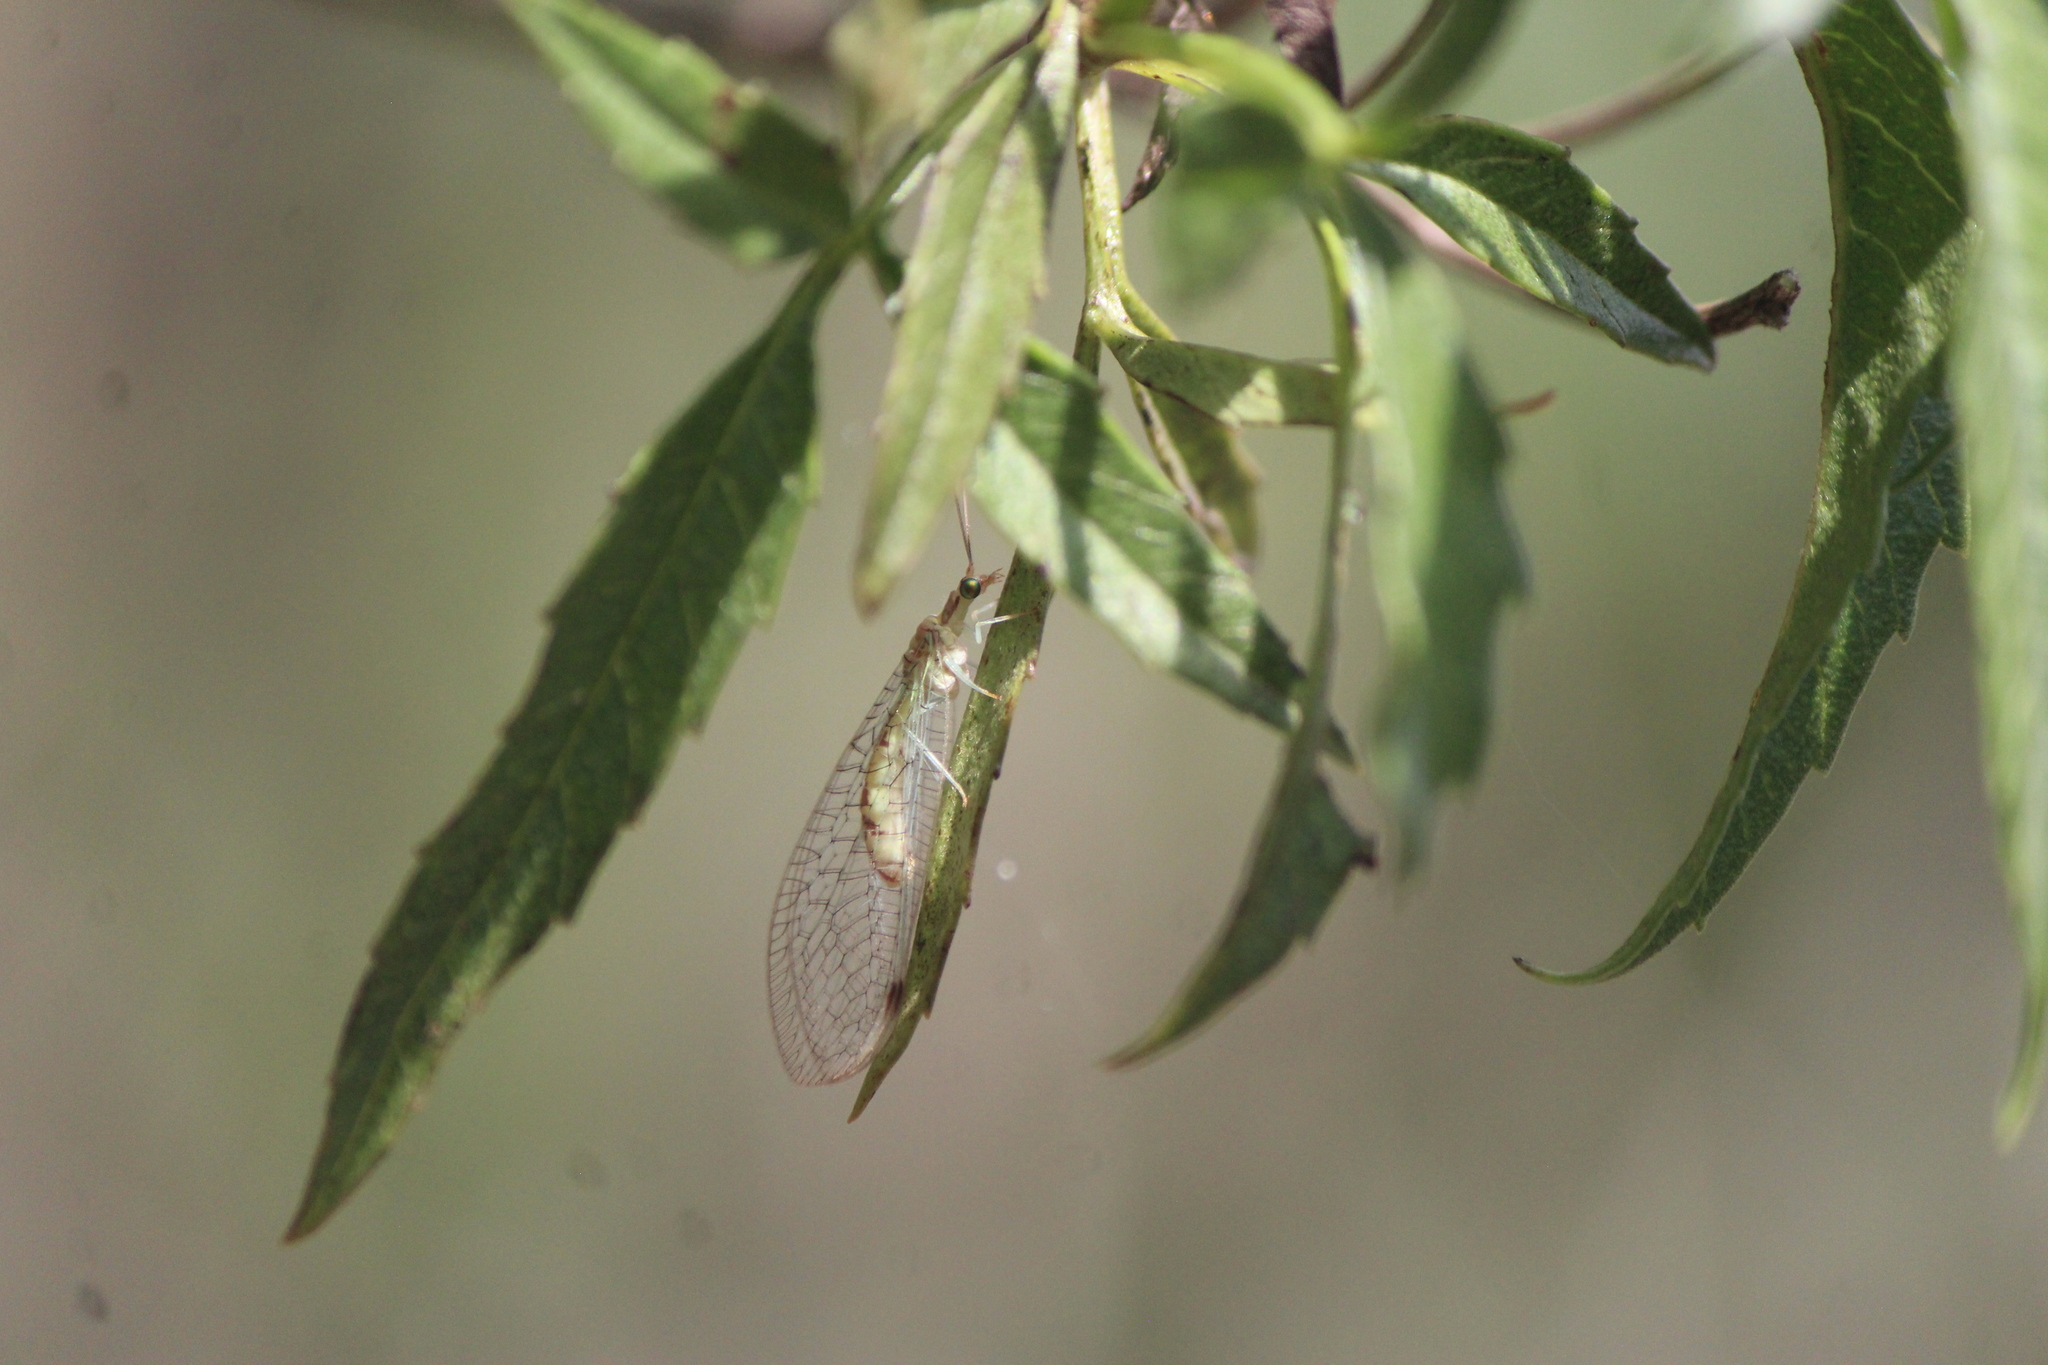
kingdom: Animalia
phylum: Arthropoda
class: Insecta
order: Neuroptera
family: Chrysopidae
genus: Leucochrysa
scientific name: Leucochrysa americana
